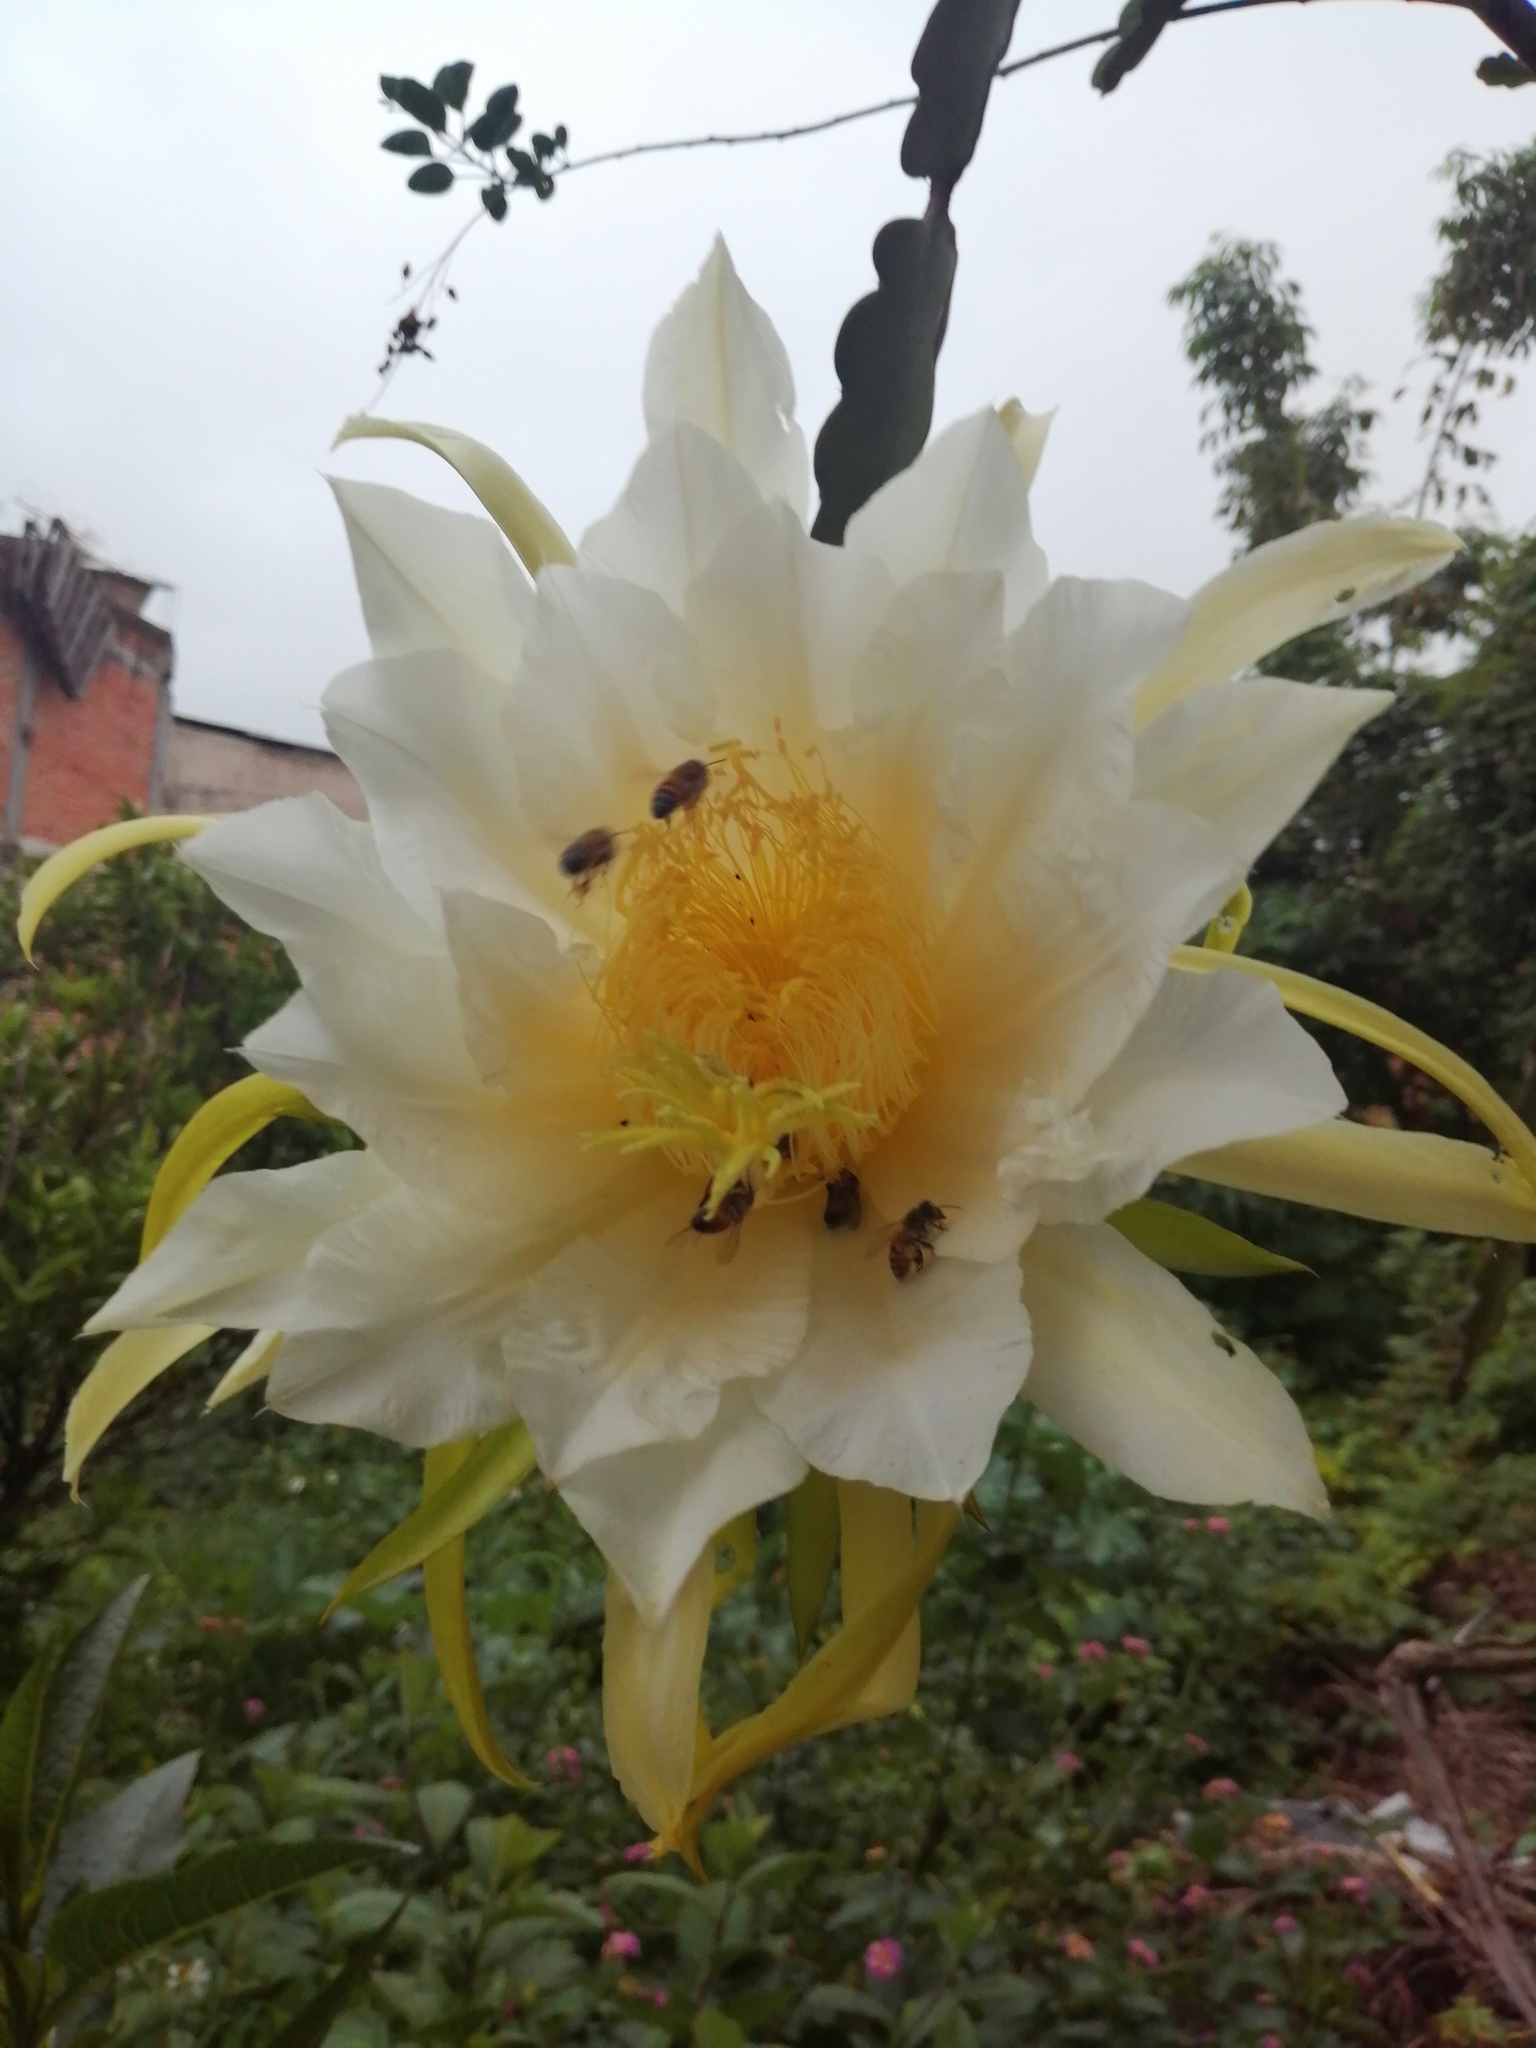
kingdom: Animalia
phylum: Arthropoda
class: Insecta
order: Hymenoptera
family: Apidae
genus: Apis
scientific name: Apis mellifera
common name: Honey bee
